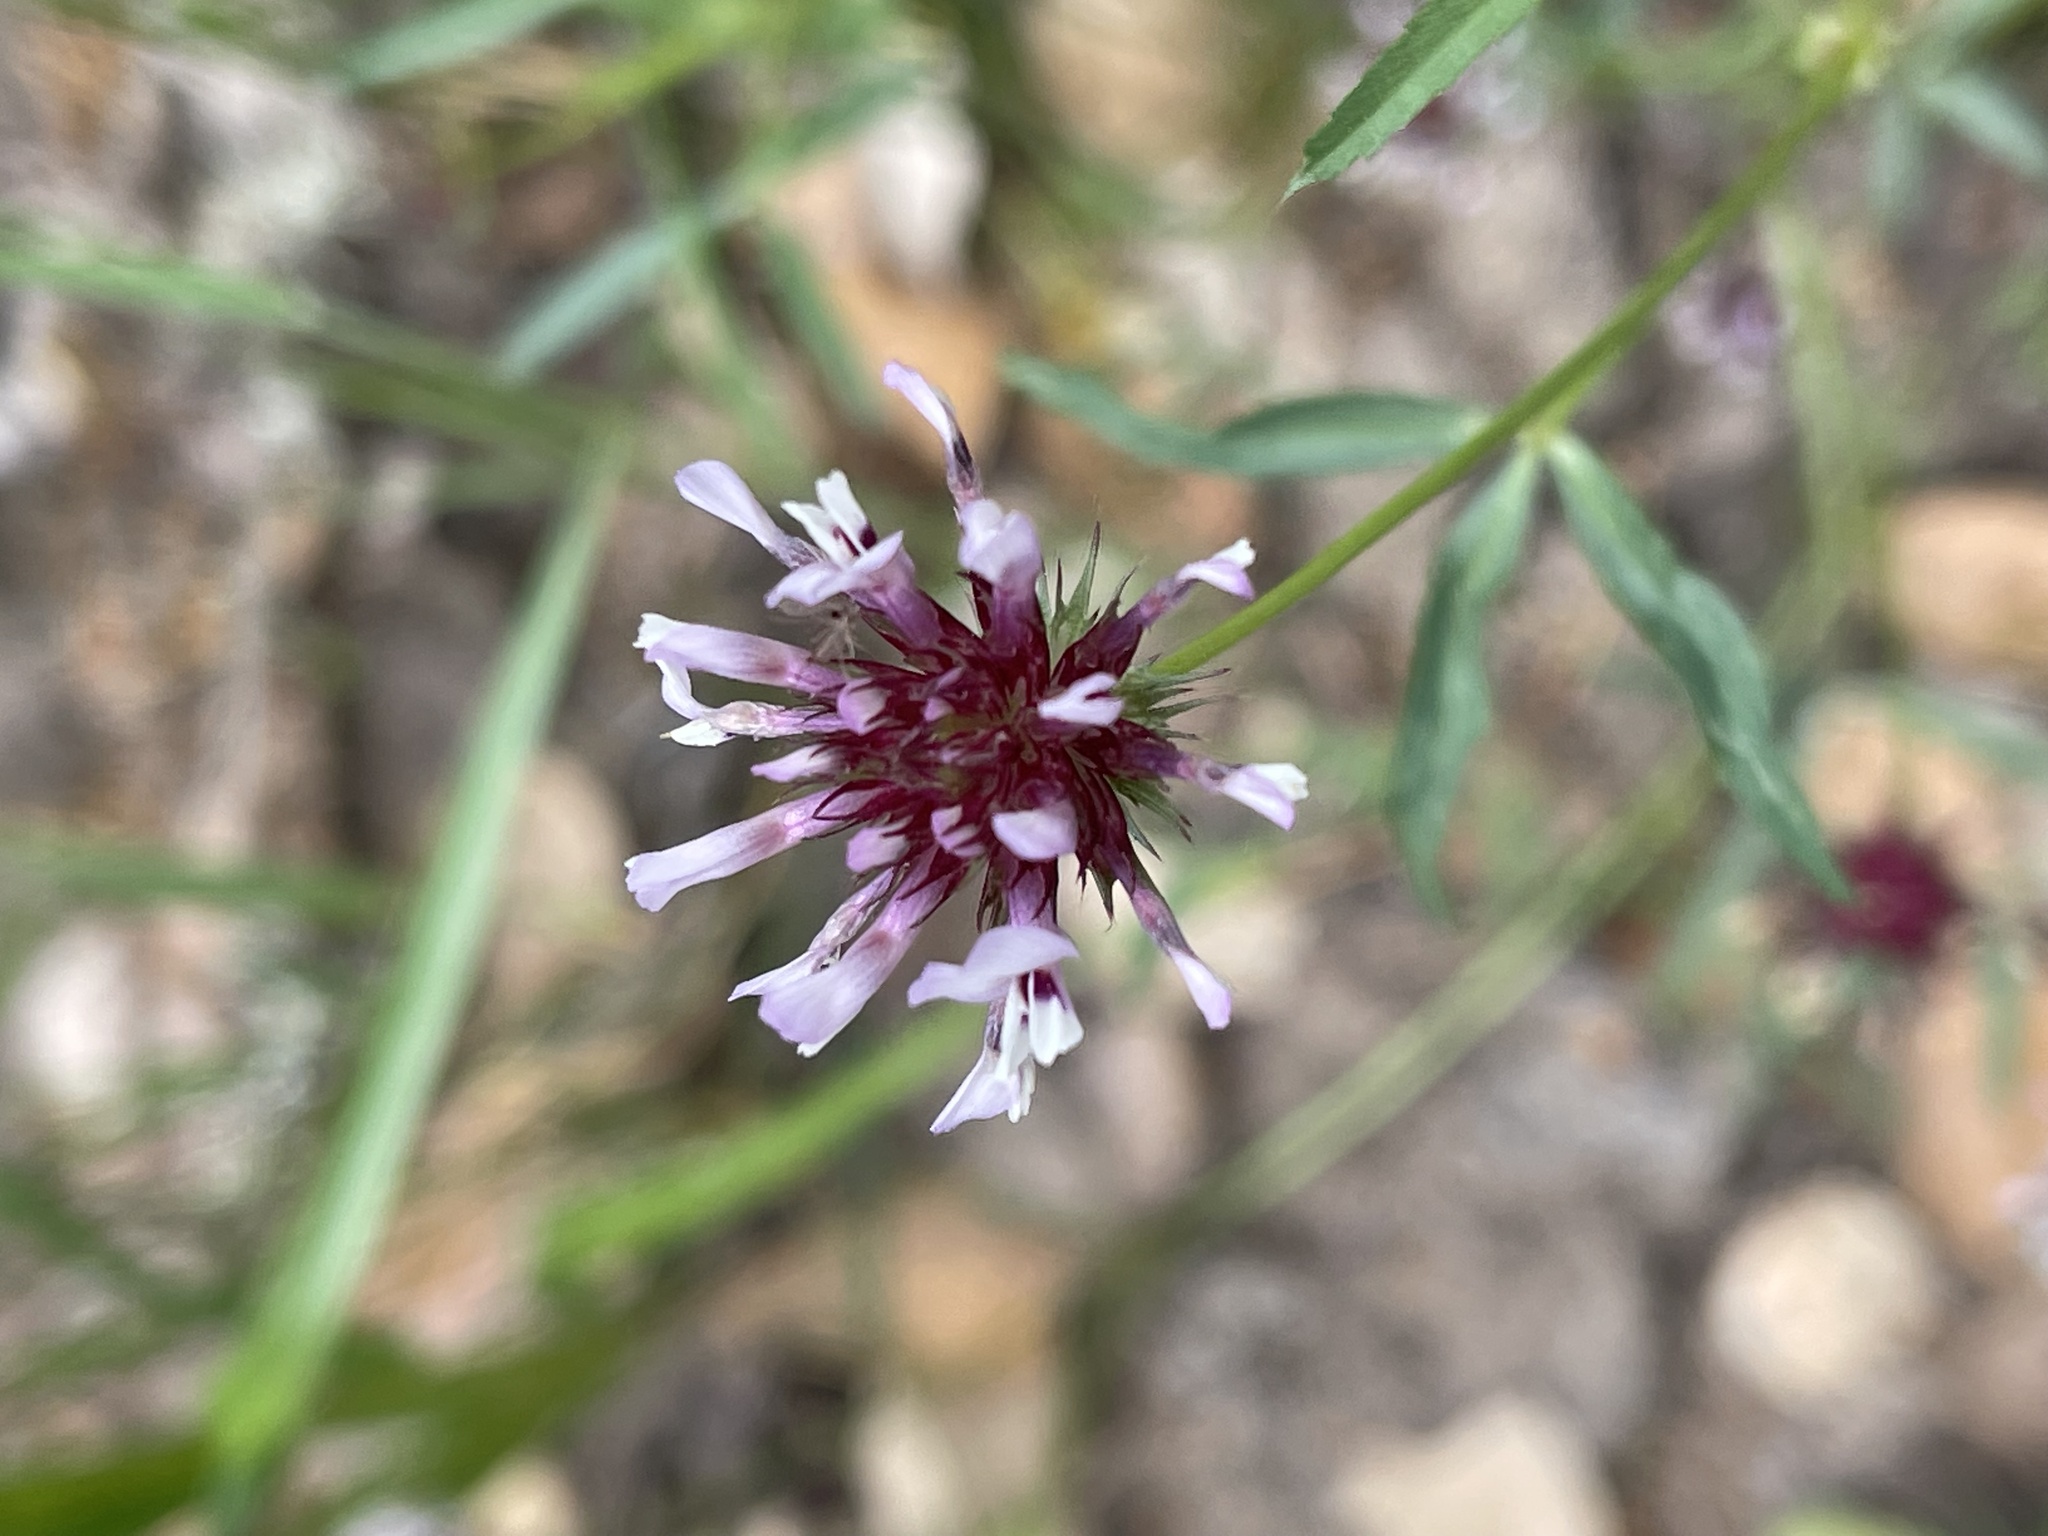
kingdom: Plantae
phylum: Tracheophyta
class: Magnoliopsida
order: Fabales
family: Fabaceae
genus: Trifolium
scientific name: Trifolium willdenovii
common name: Tomcat clover
